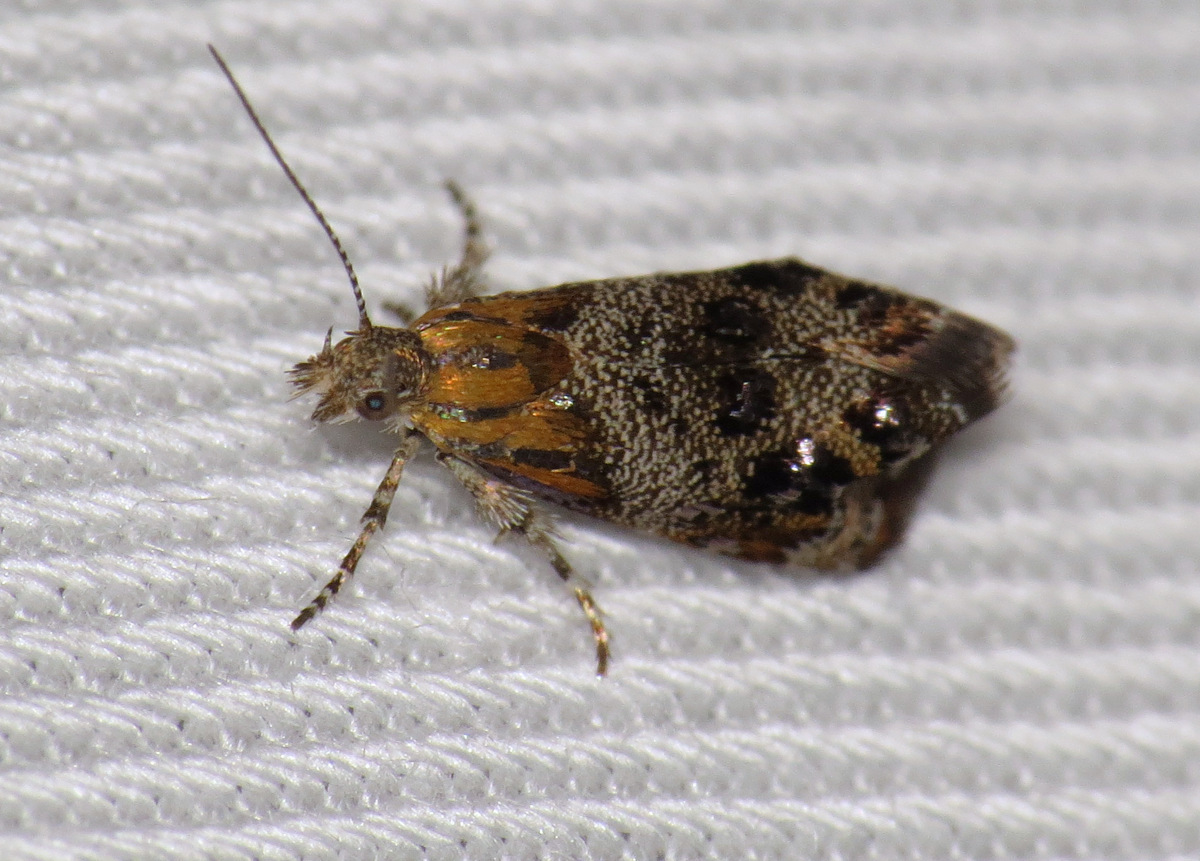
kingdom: Animalia
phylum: Arthropoda
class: Insecta
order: Lepidoptera
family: Choreutidae
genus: Tebenna
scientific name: Tebenna gnaphaliella
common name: Everlasting tebenna moth
